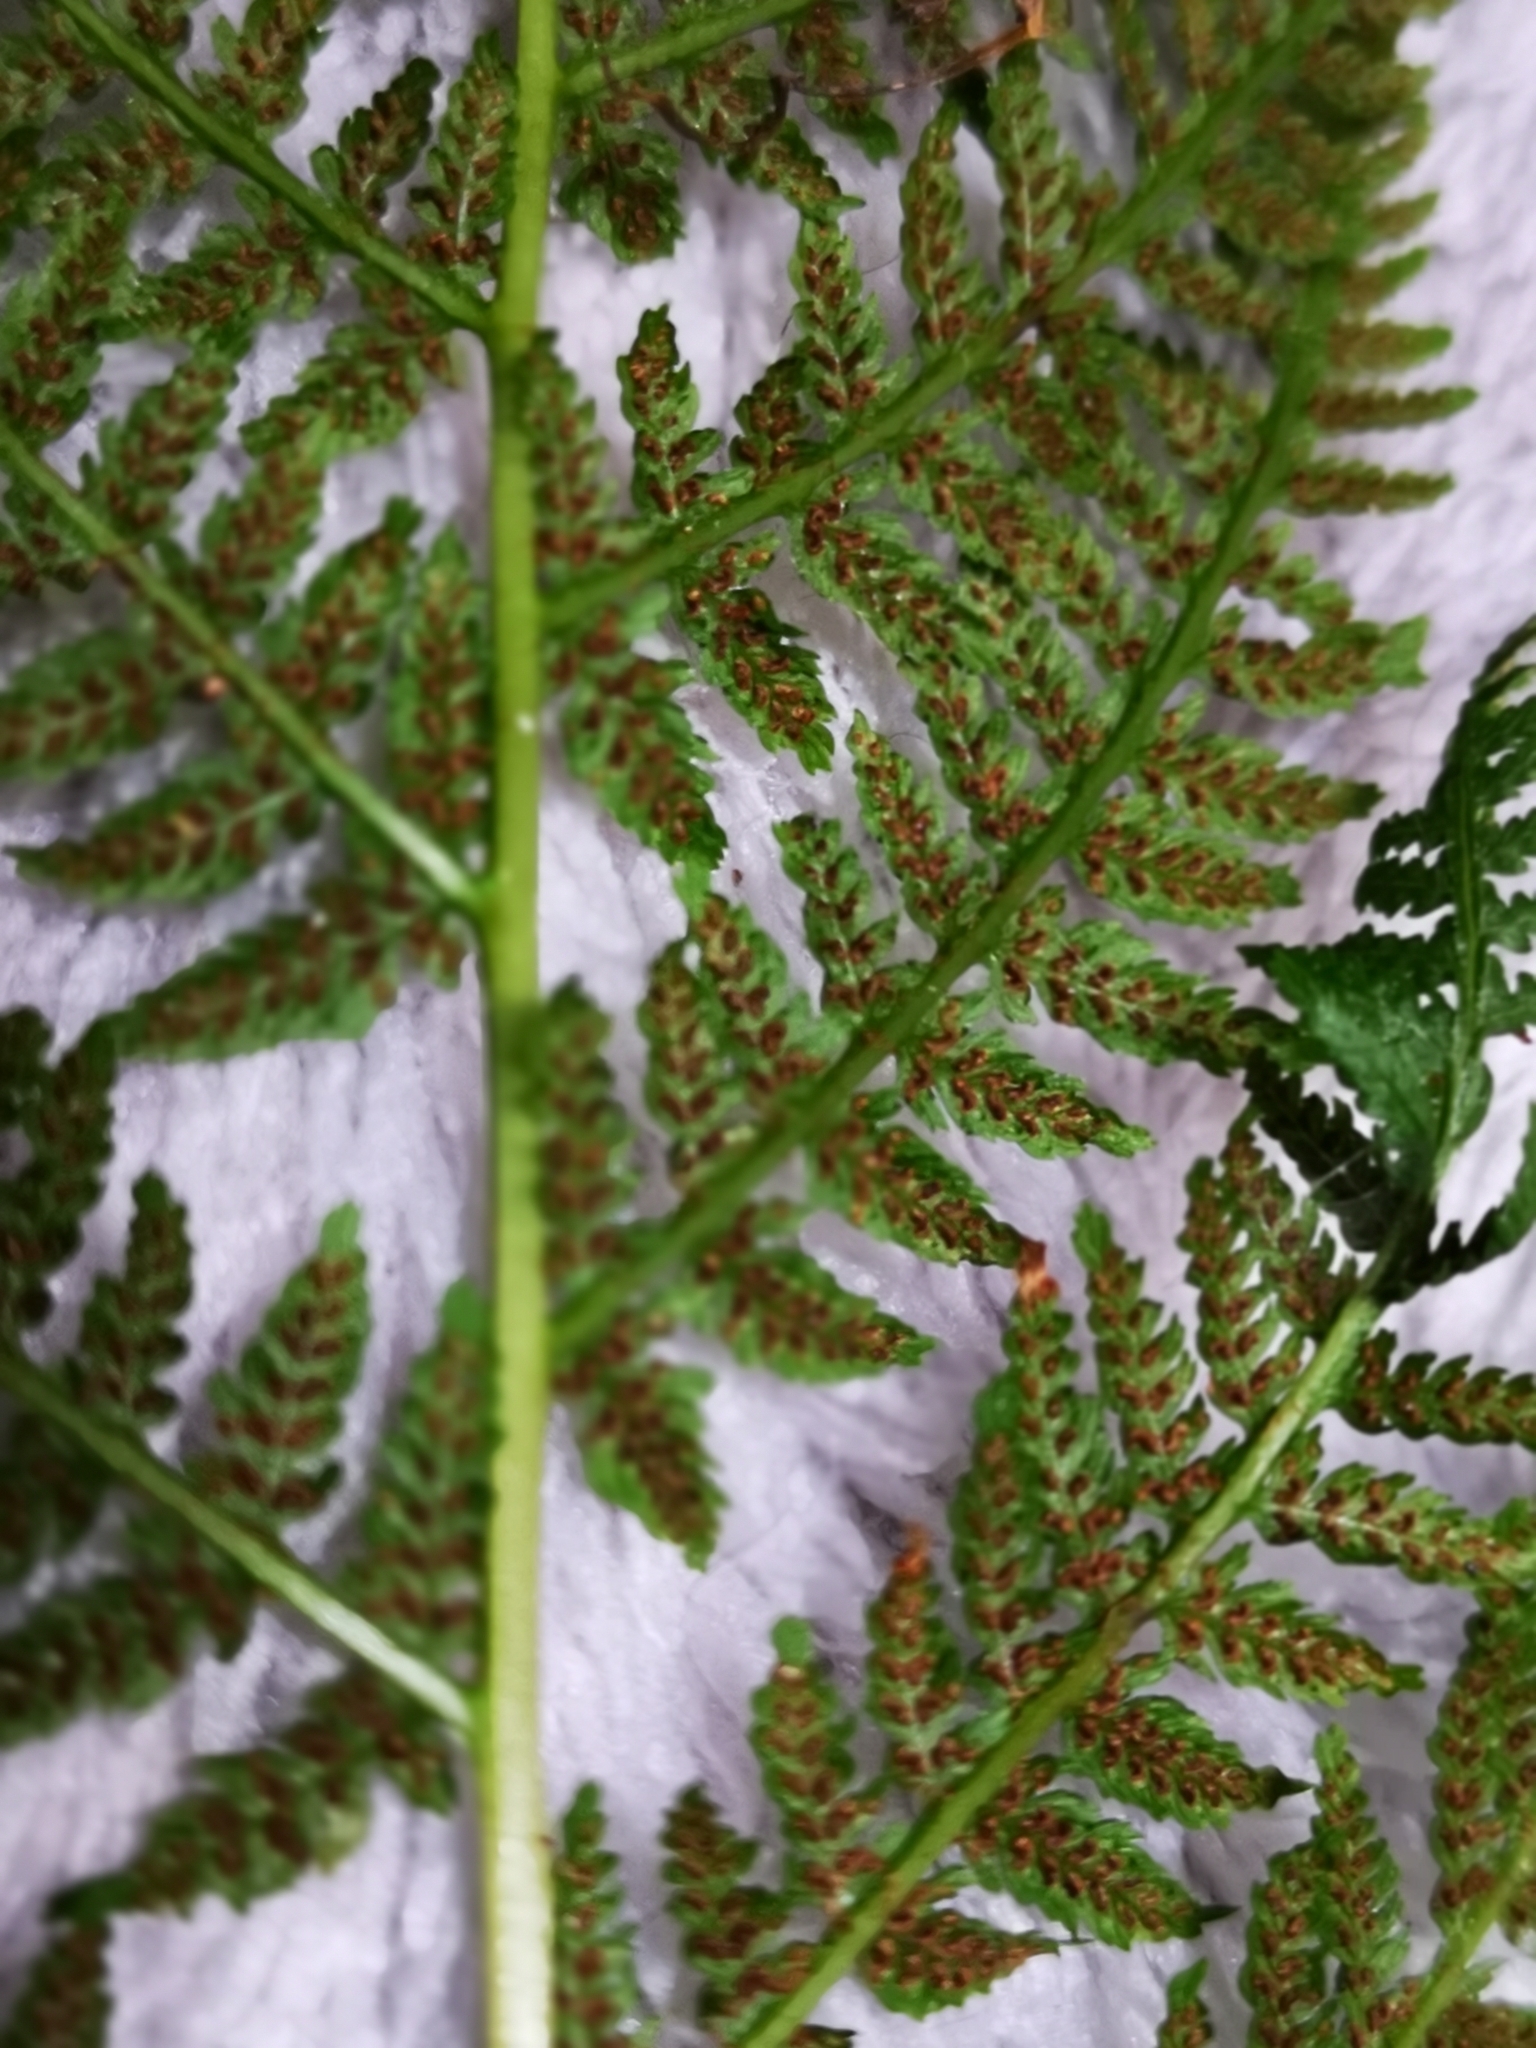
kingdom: Plantae
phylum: Tracheophyta
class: Polypodiopsida
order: Polypodiales
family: Athyriaceae
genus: Athyrium
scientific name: Athyrium filix-femina
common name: Lady fern
